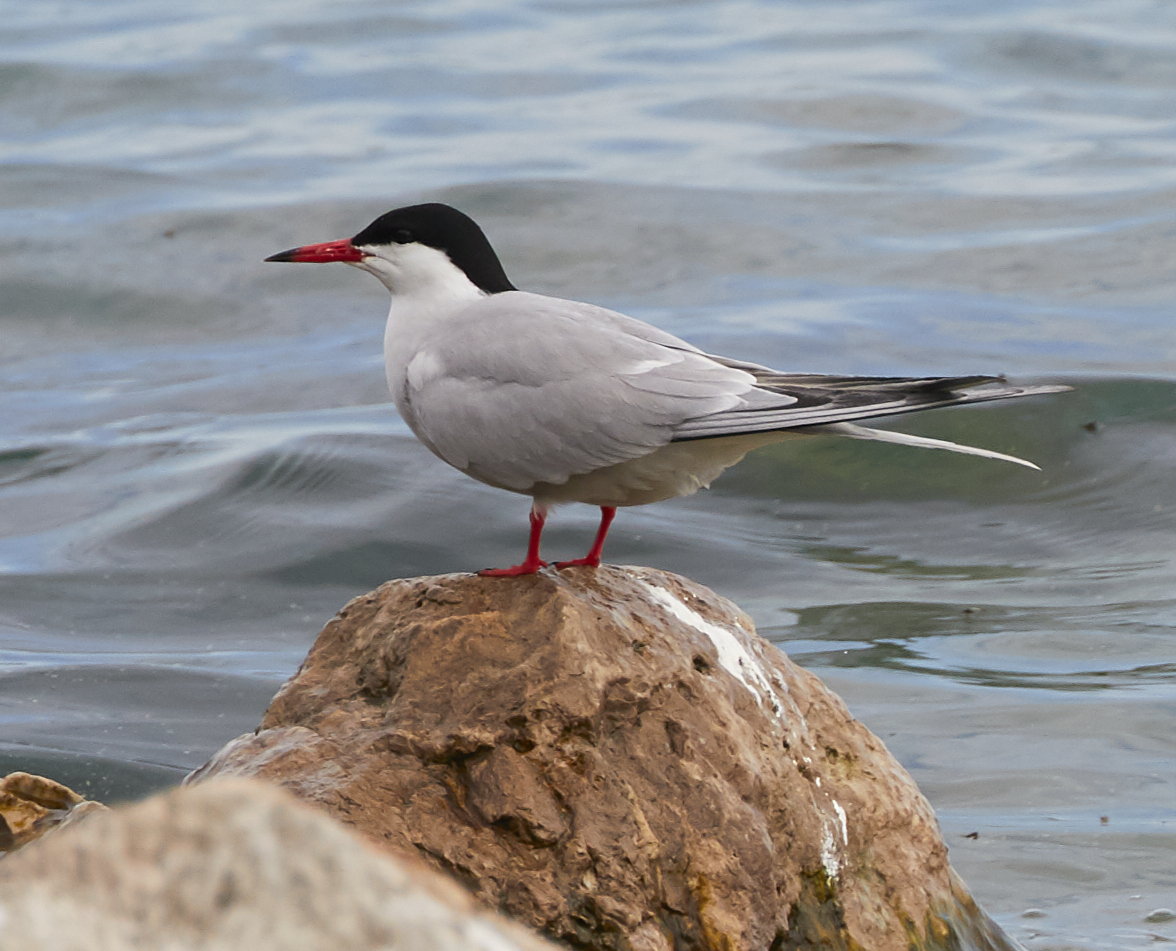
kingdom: Animalia
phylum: Chordata
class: Aves
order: Charadriiformes
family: Laridae
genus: Sterna
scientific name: Sterna hirundo
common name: Common tern
